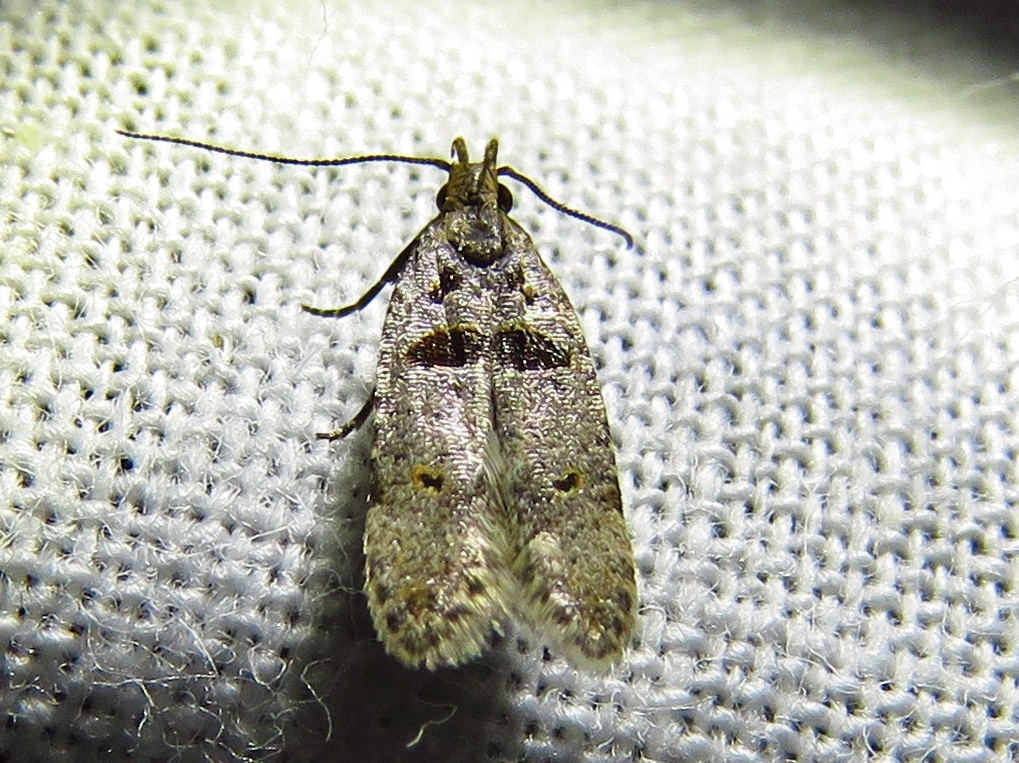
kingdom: Animalia
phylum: Arthropoda
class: Insecta
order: Lepidoptera
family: Gelechiidae
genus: Deltophora
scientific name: Deltophora glandiferella
